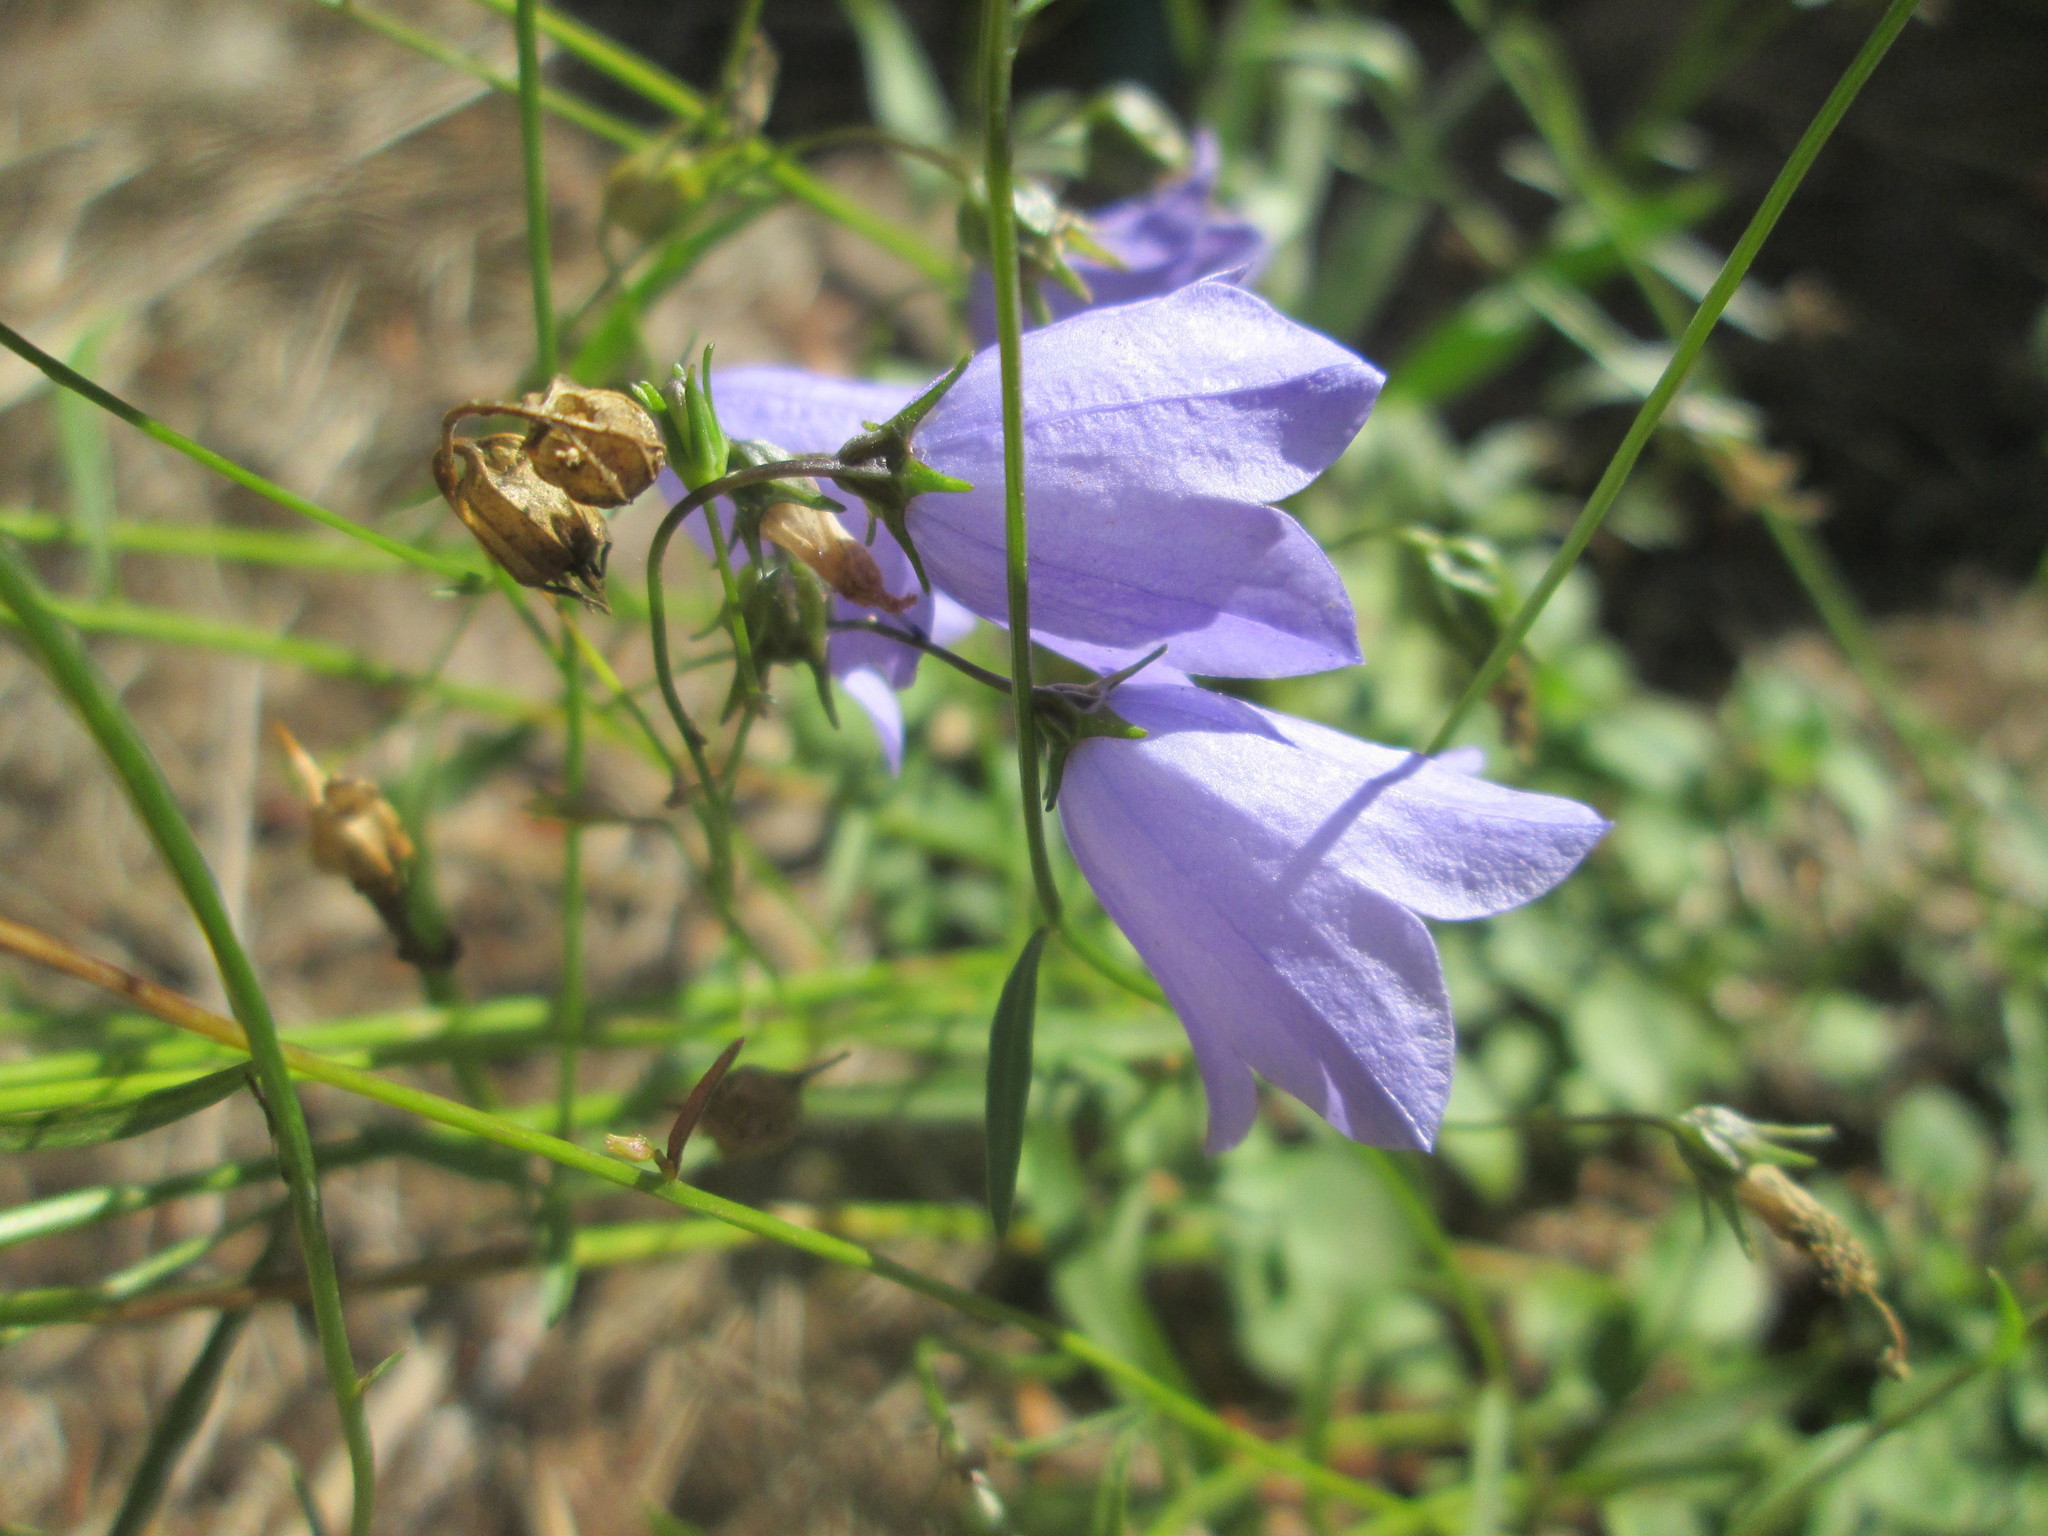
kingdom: Plantae
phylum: Tracheophyta
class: Magnoliopsida
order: Asterales
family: Campanulaceae
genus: Campanula
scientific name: Campanula rotundifolia
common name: Harebell
